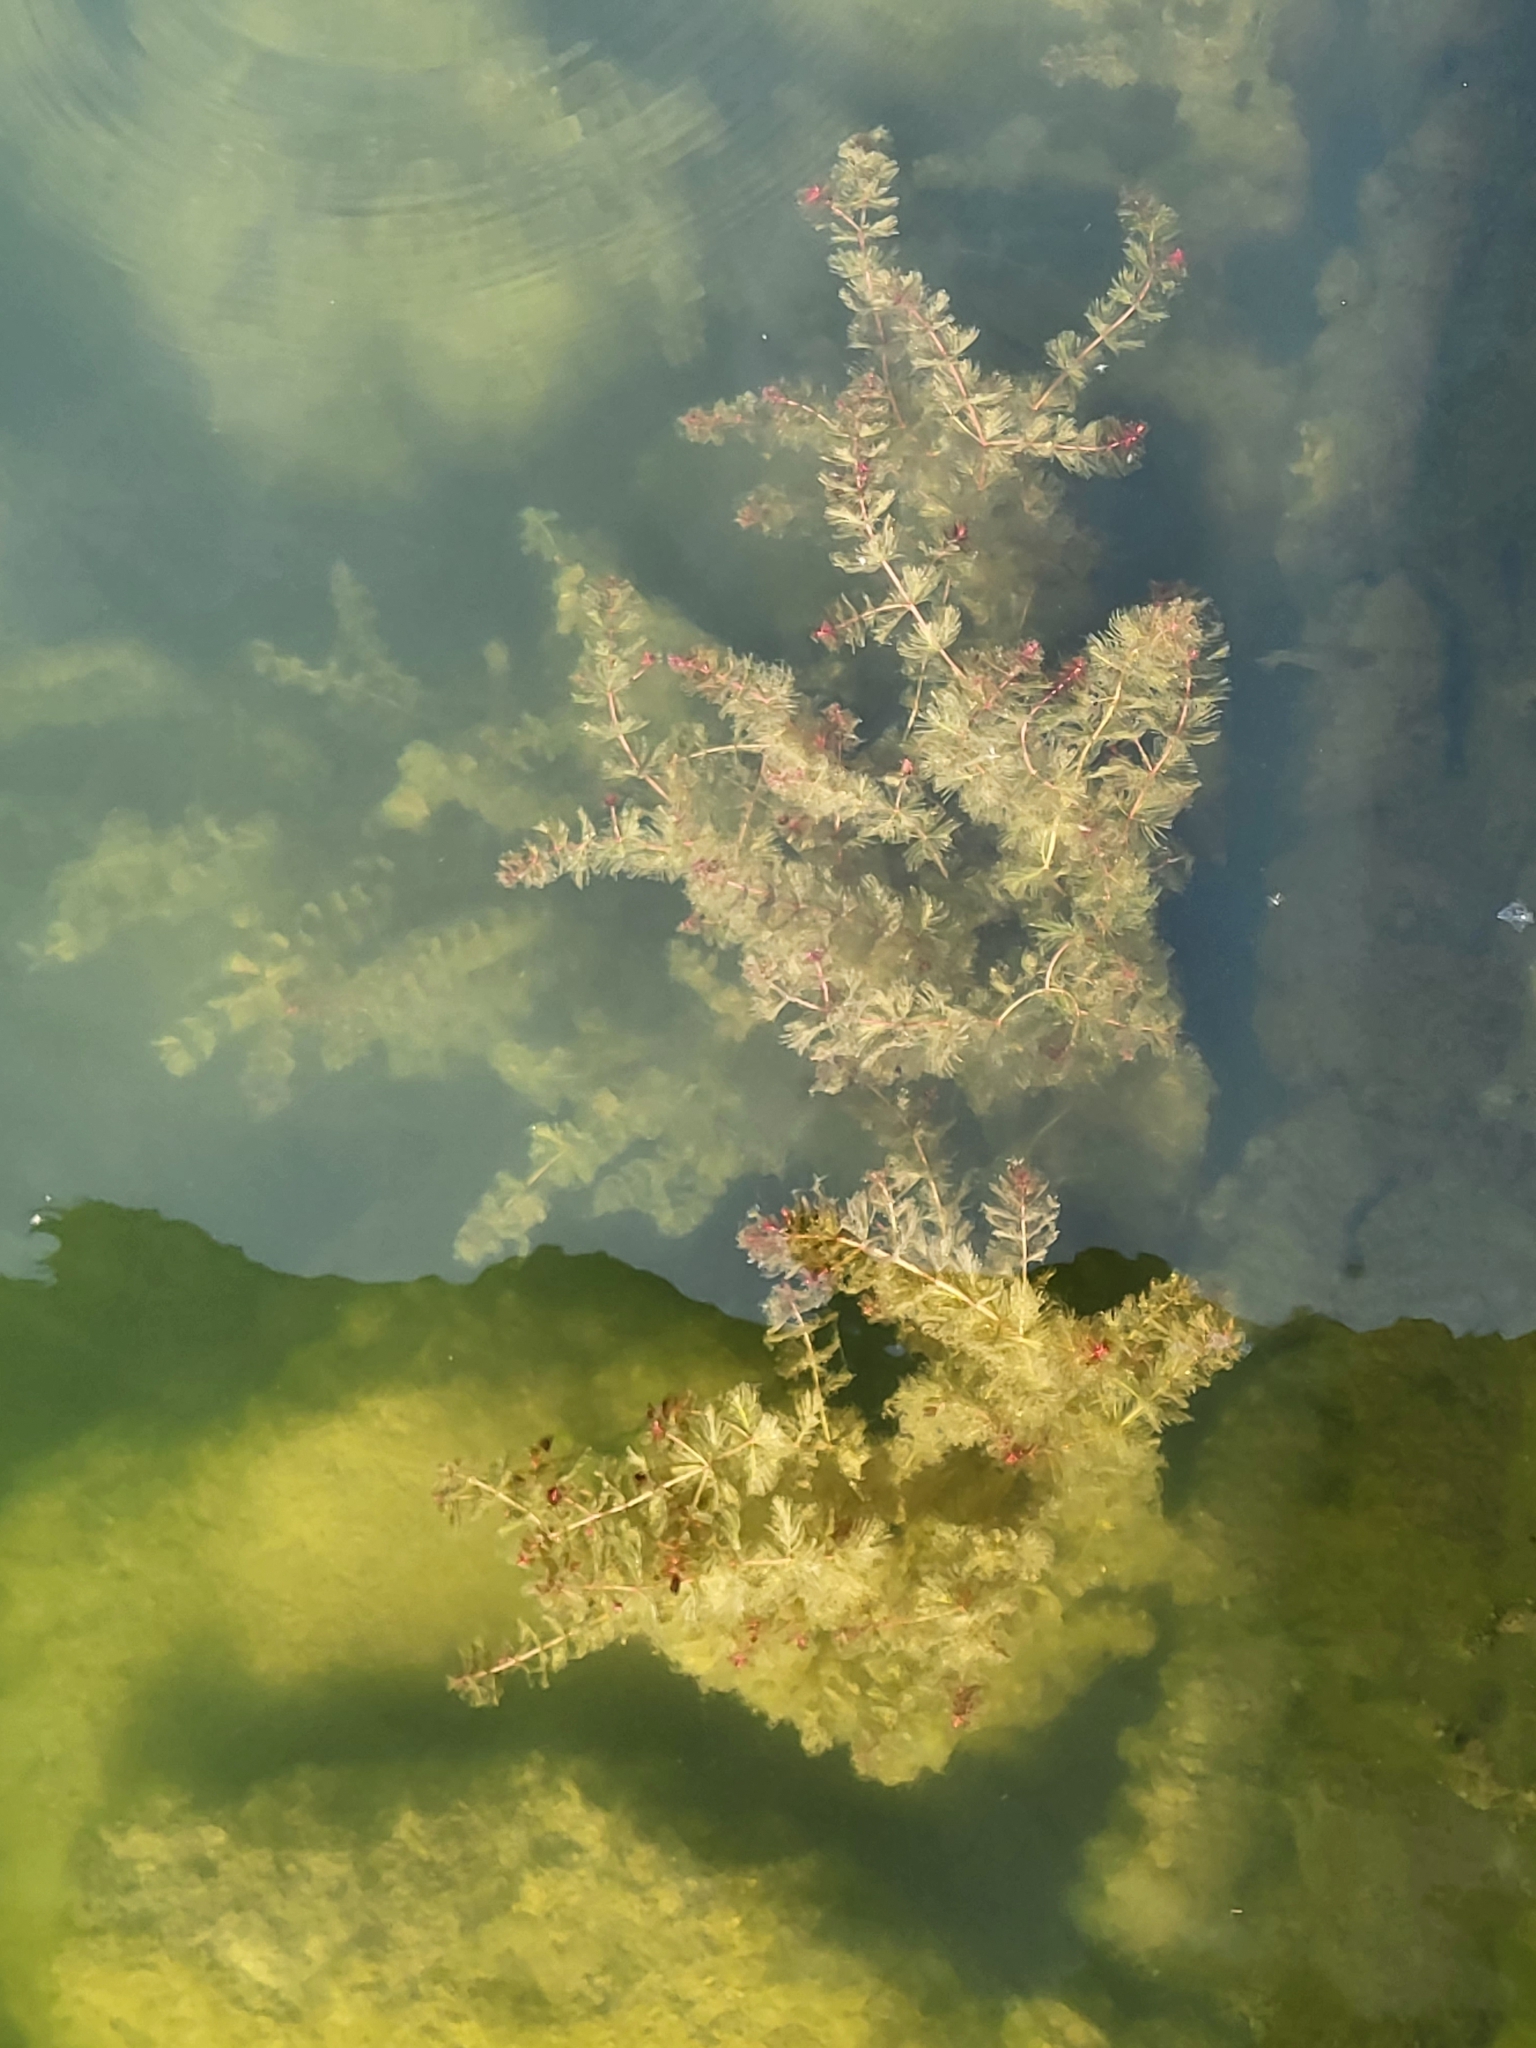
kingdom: Plantae
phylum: Tracheophyta
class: Magnoliopsida
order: Saxifragales
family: Haloragaceae
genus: Myriophyllum
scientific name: Myriophyllum spicatum
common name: Spiked water-milfoil
